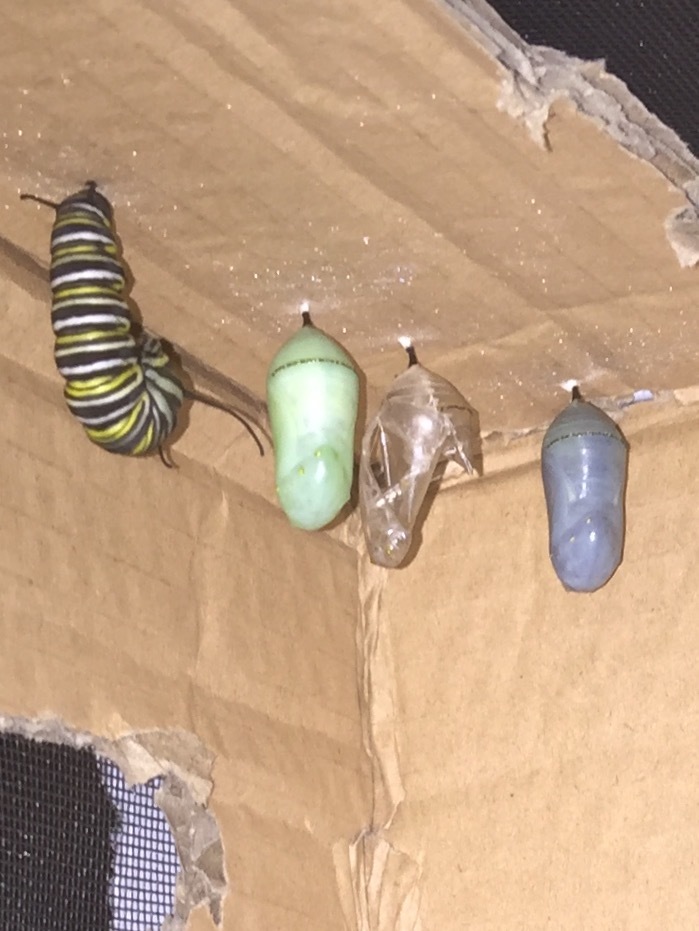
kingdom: Animalia
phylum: Arthropoda
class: Insecta
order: Lepidoptera
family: Nymphalidae
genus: Danaus
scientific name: Danaus plexippus
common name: Monarch
